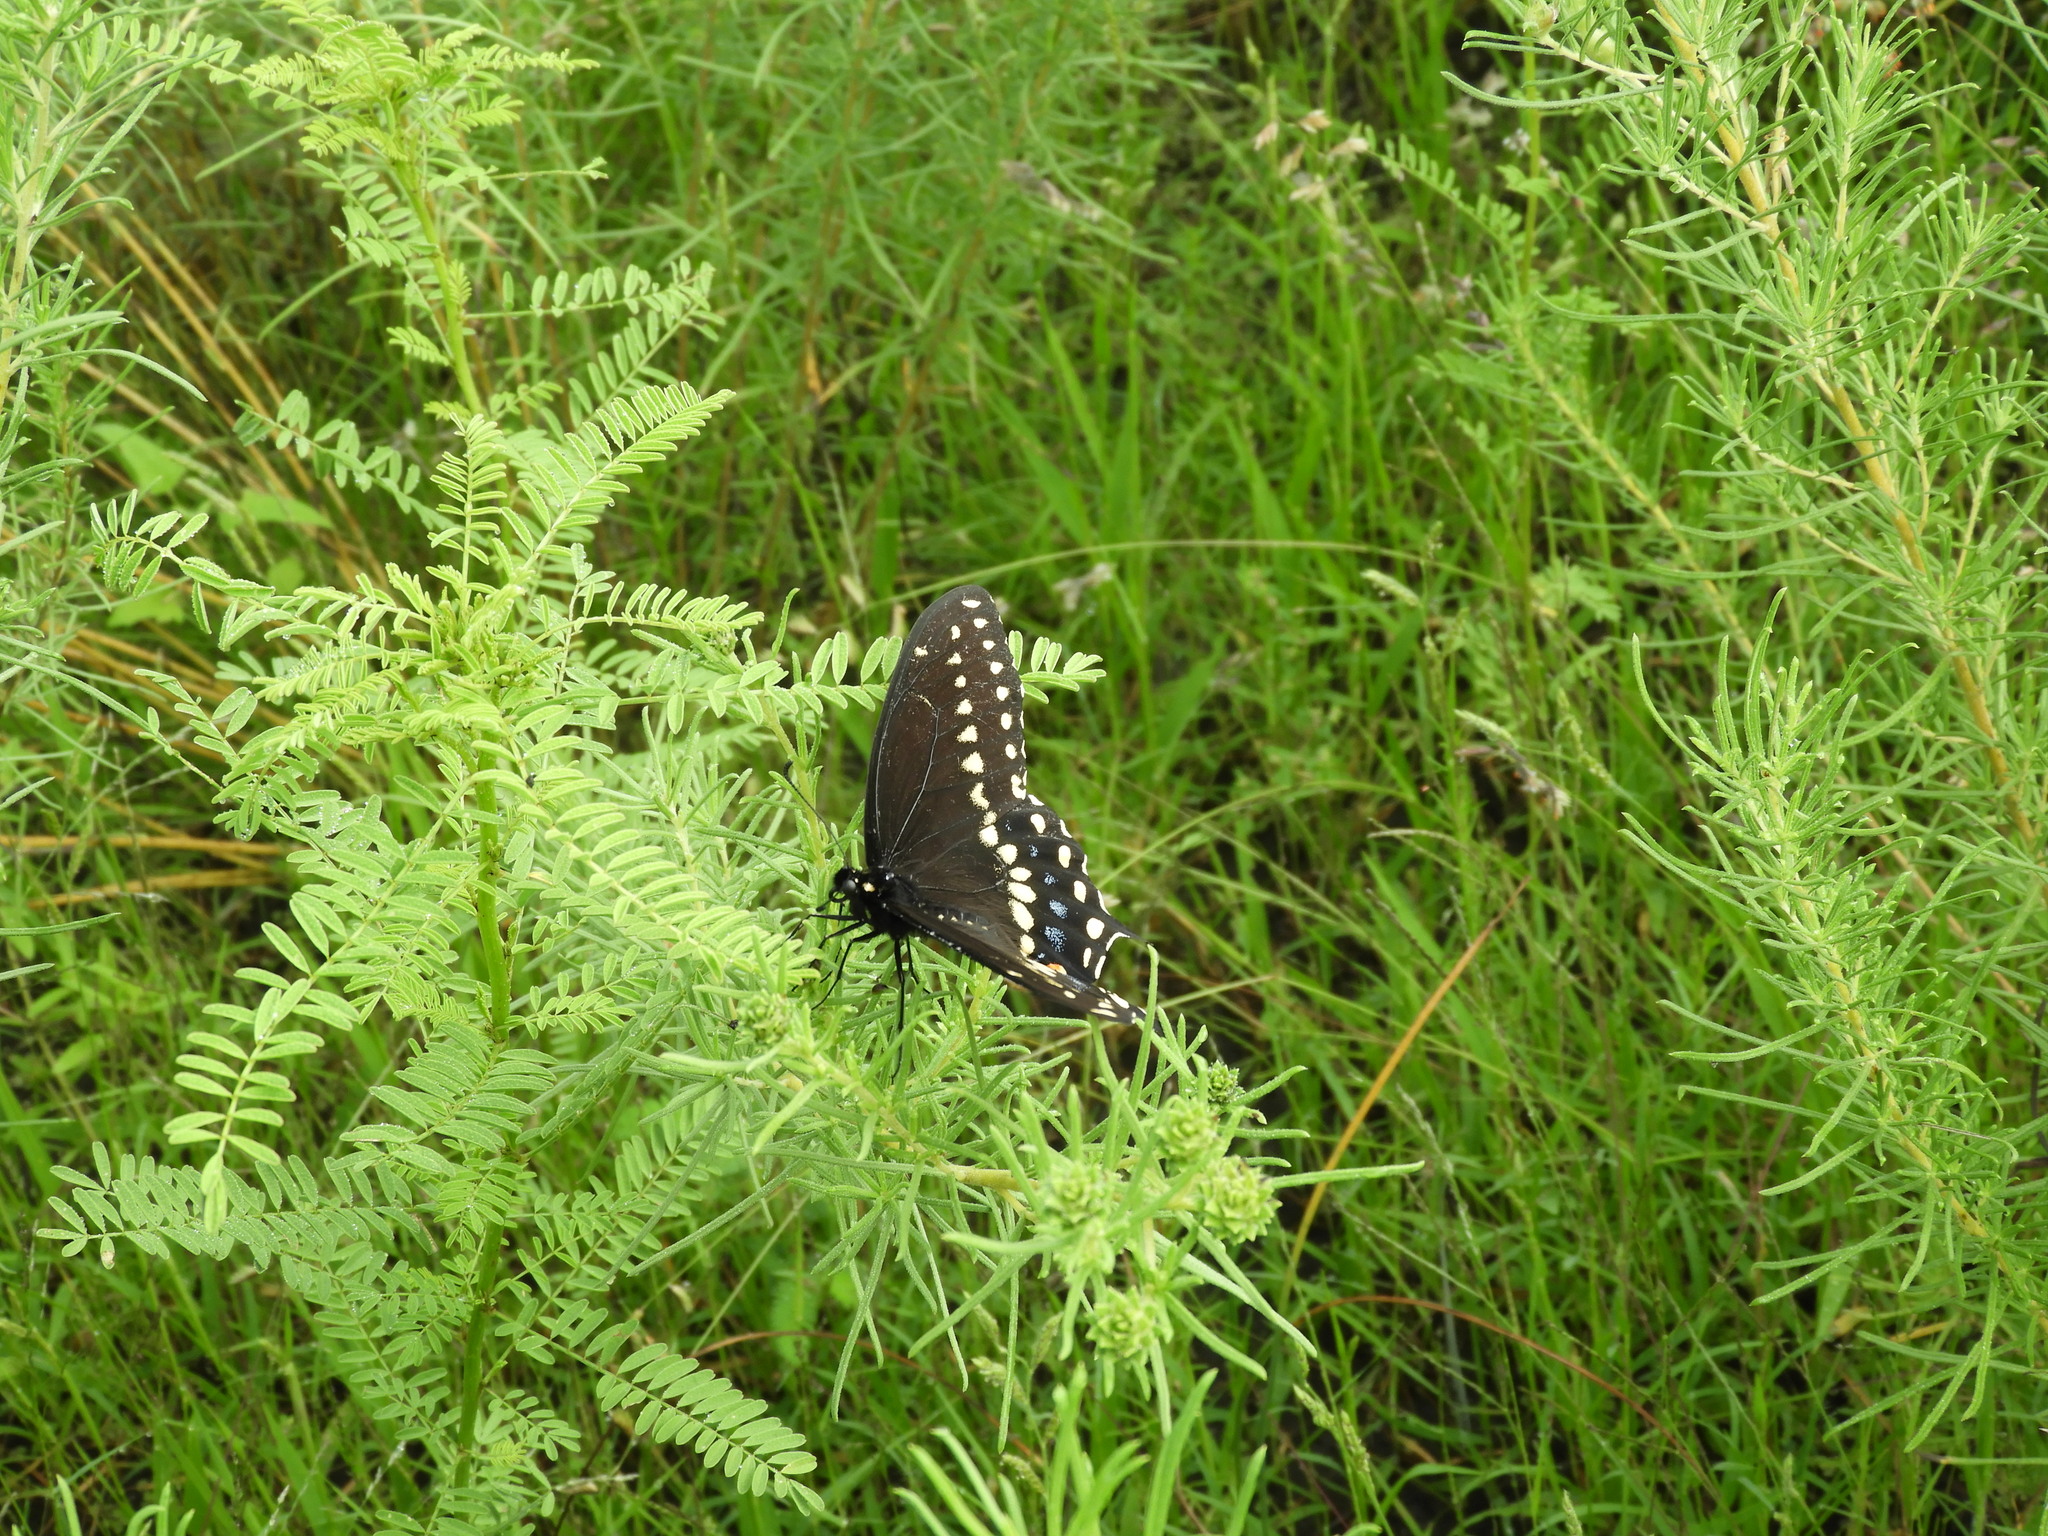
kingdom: Animalia
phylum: Arthropoda
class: Insecta
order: Lepidoptera
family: Papilionidae
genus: Papilio
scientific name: Papilio polyxenes
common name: Black swallowtail
